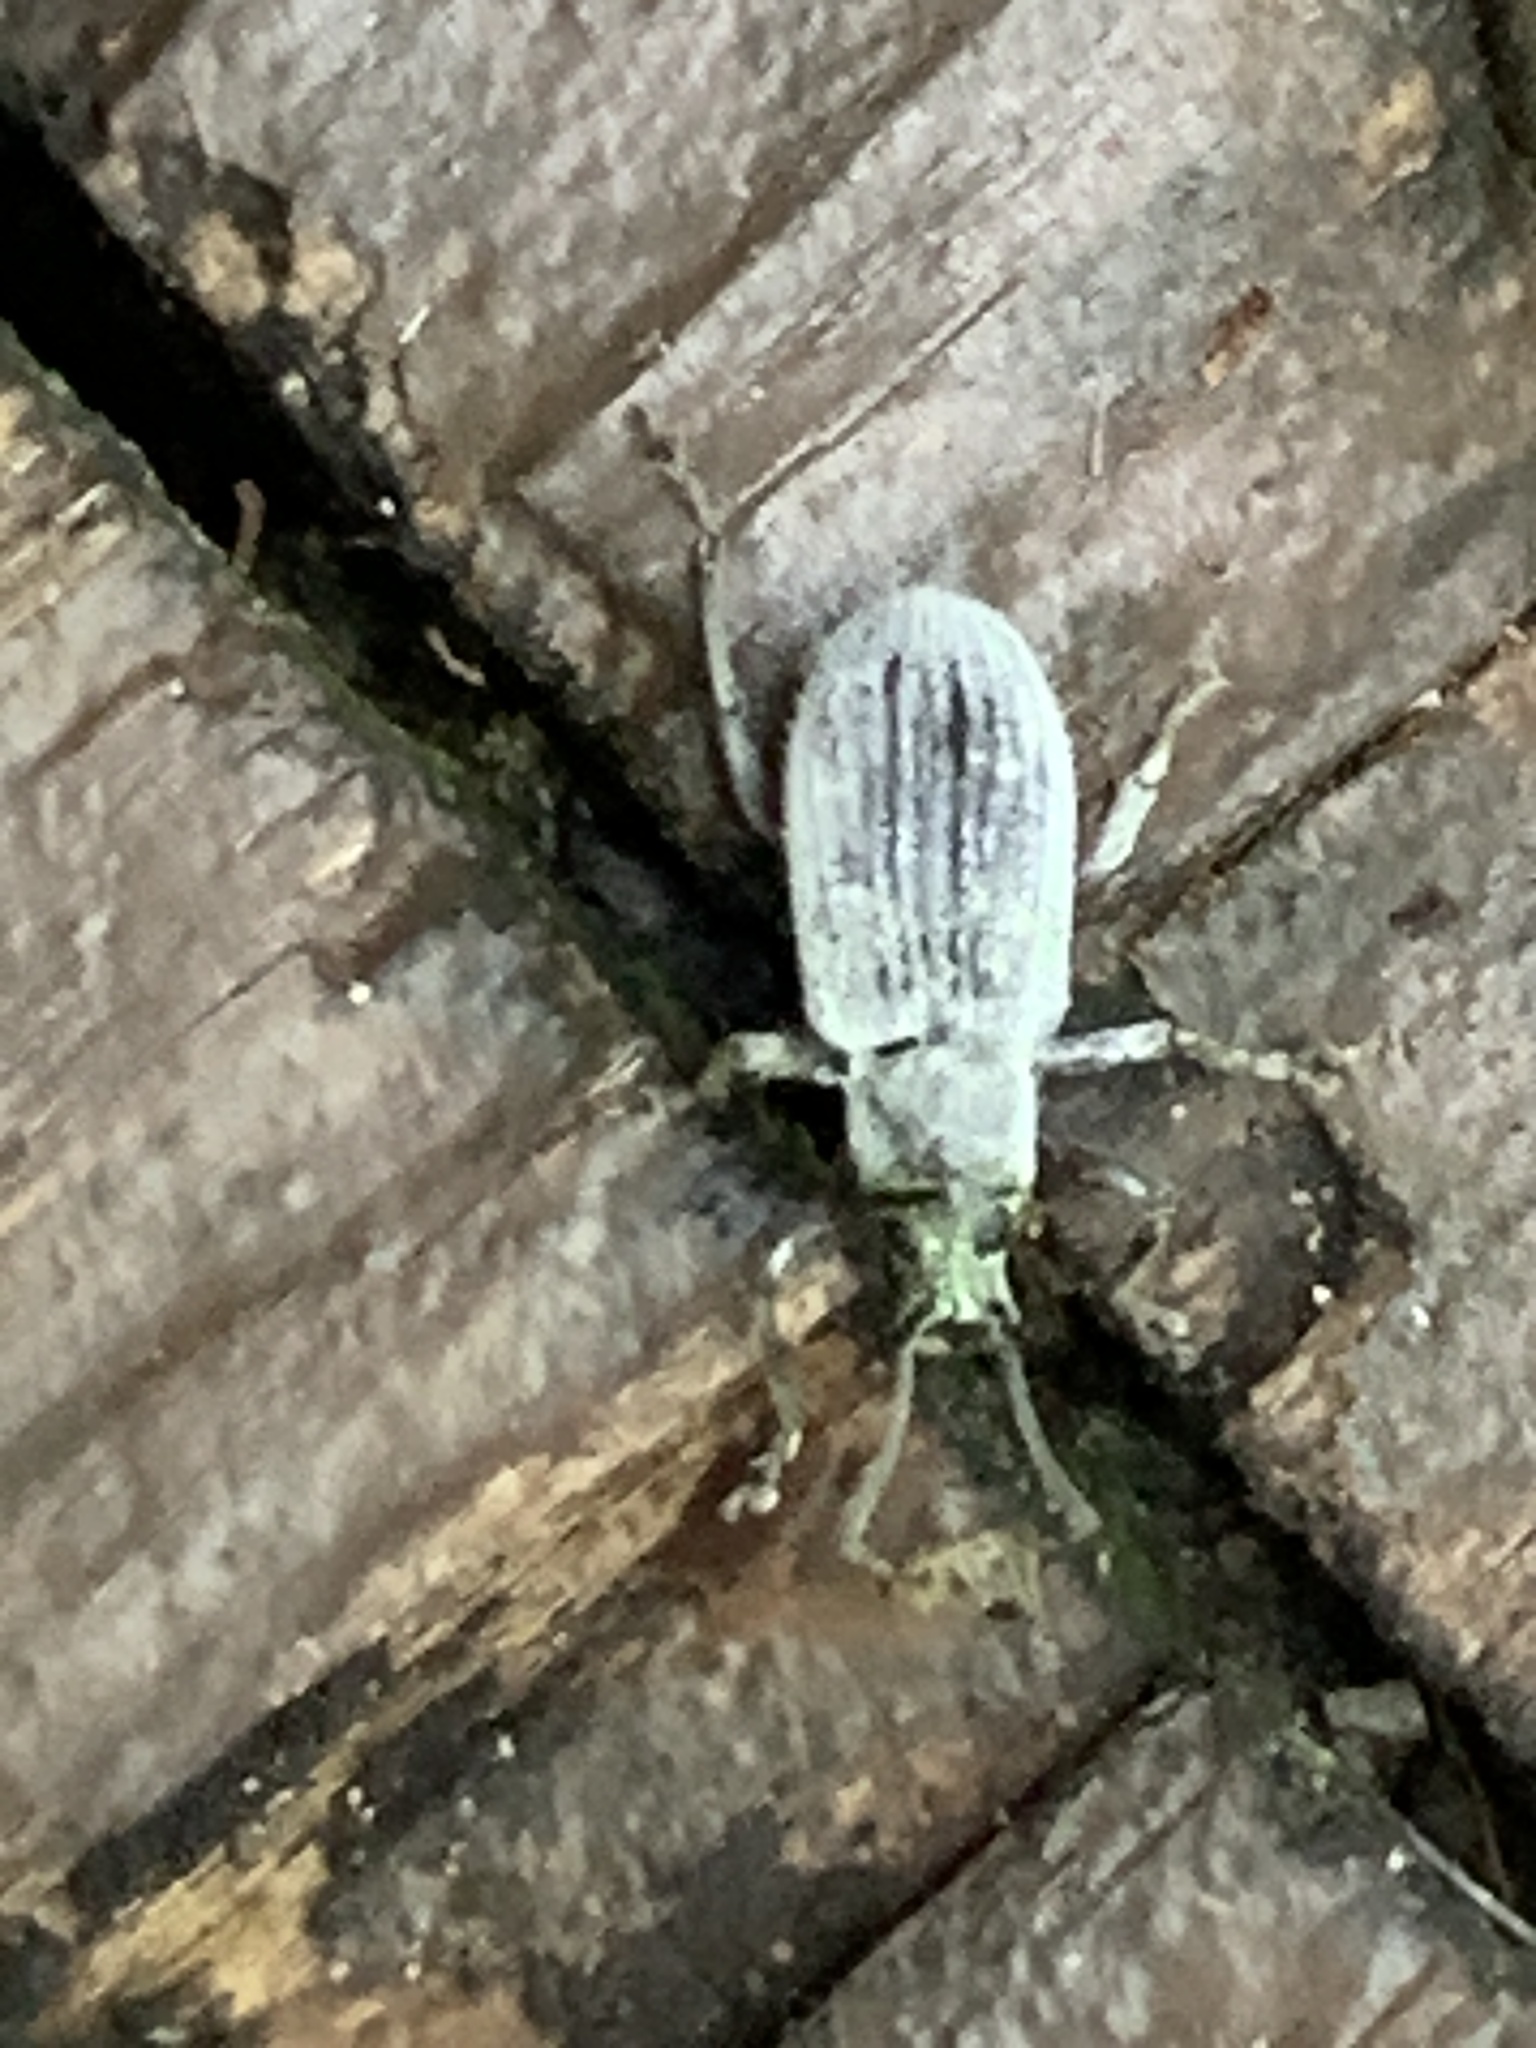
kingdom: Animalia
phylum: Arthropoda
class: Insecta
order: Coleoptera
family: Curculionidae
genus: Cyrtepistomus
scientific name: Cyrtepistomus castaneus
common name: Weevil
